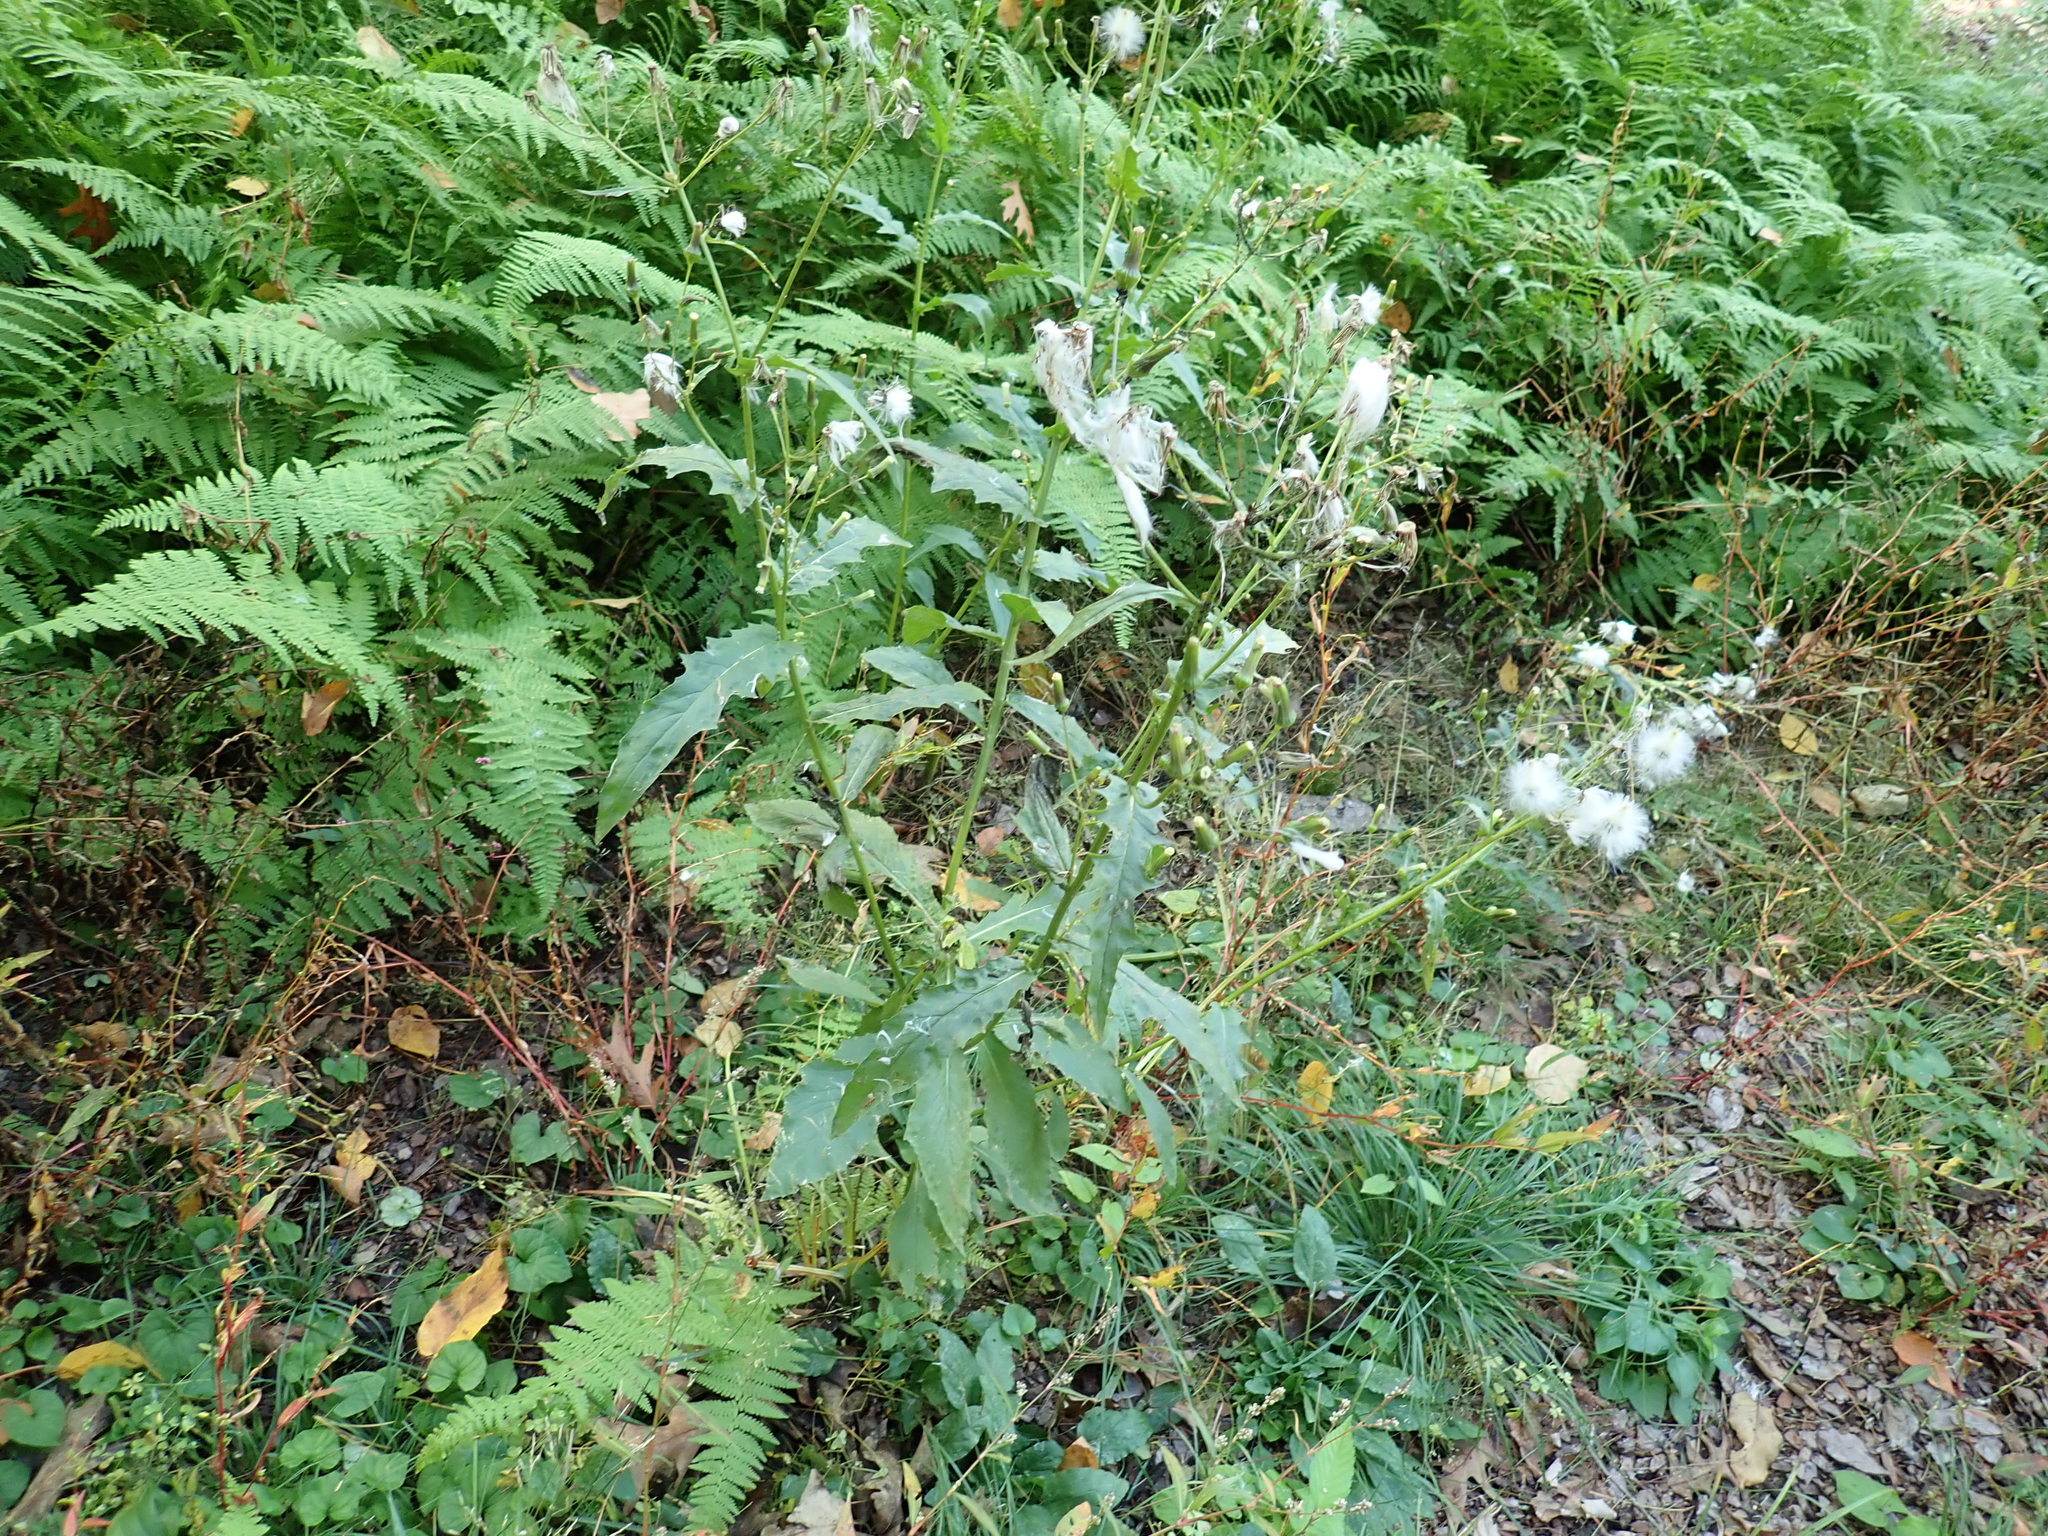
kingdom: Plantae
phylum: Tracheophyta
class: Magnoliopsida
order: Asterales
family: Asteraceae
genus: Erechtites
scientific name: Erechtites hieraciifolius
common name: American burnweed
